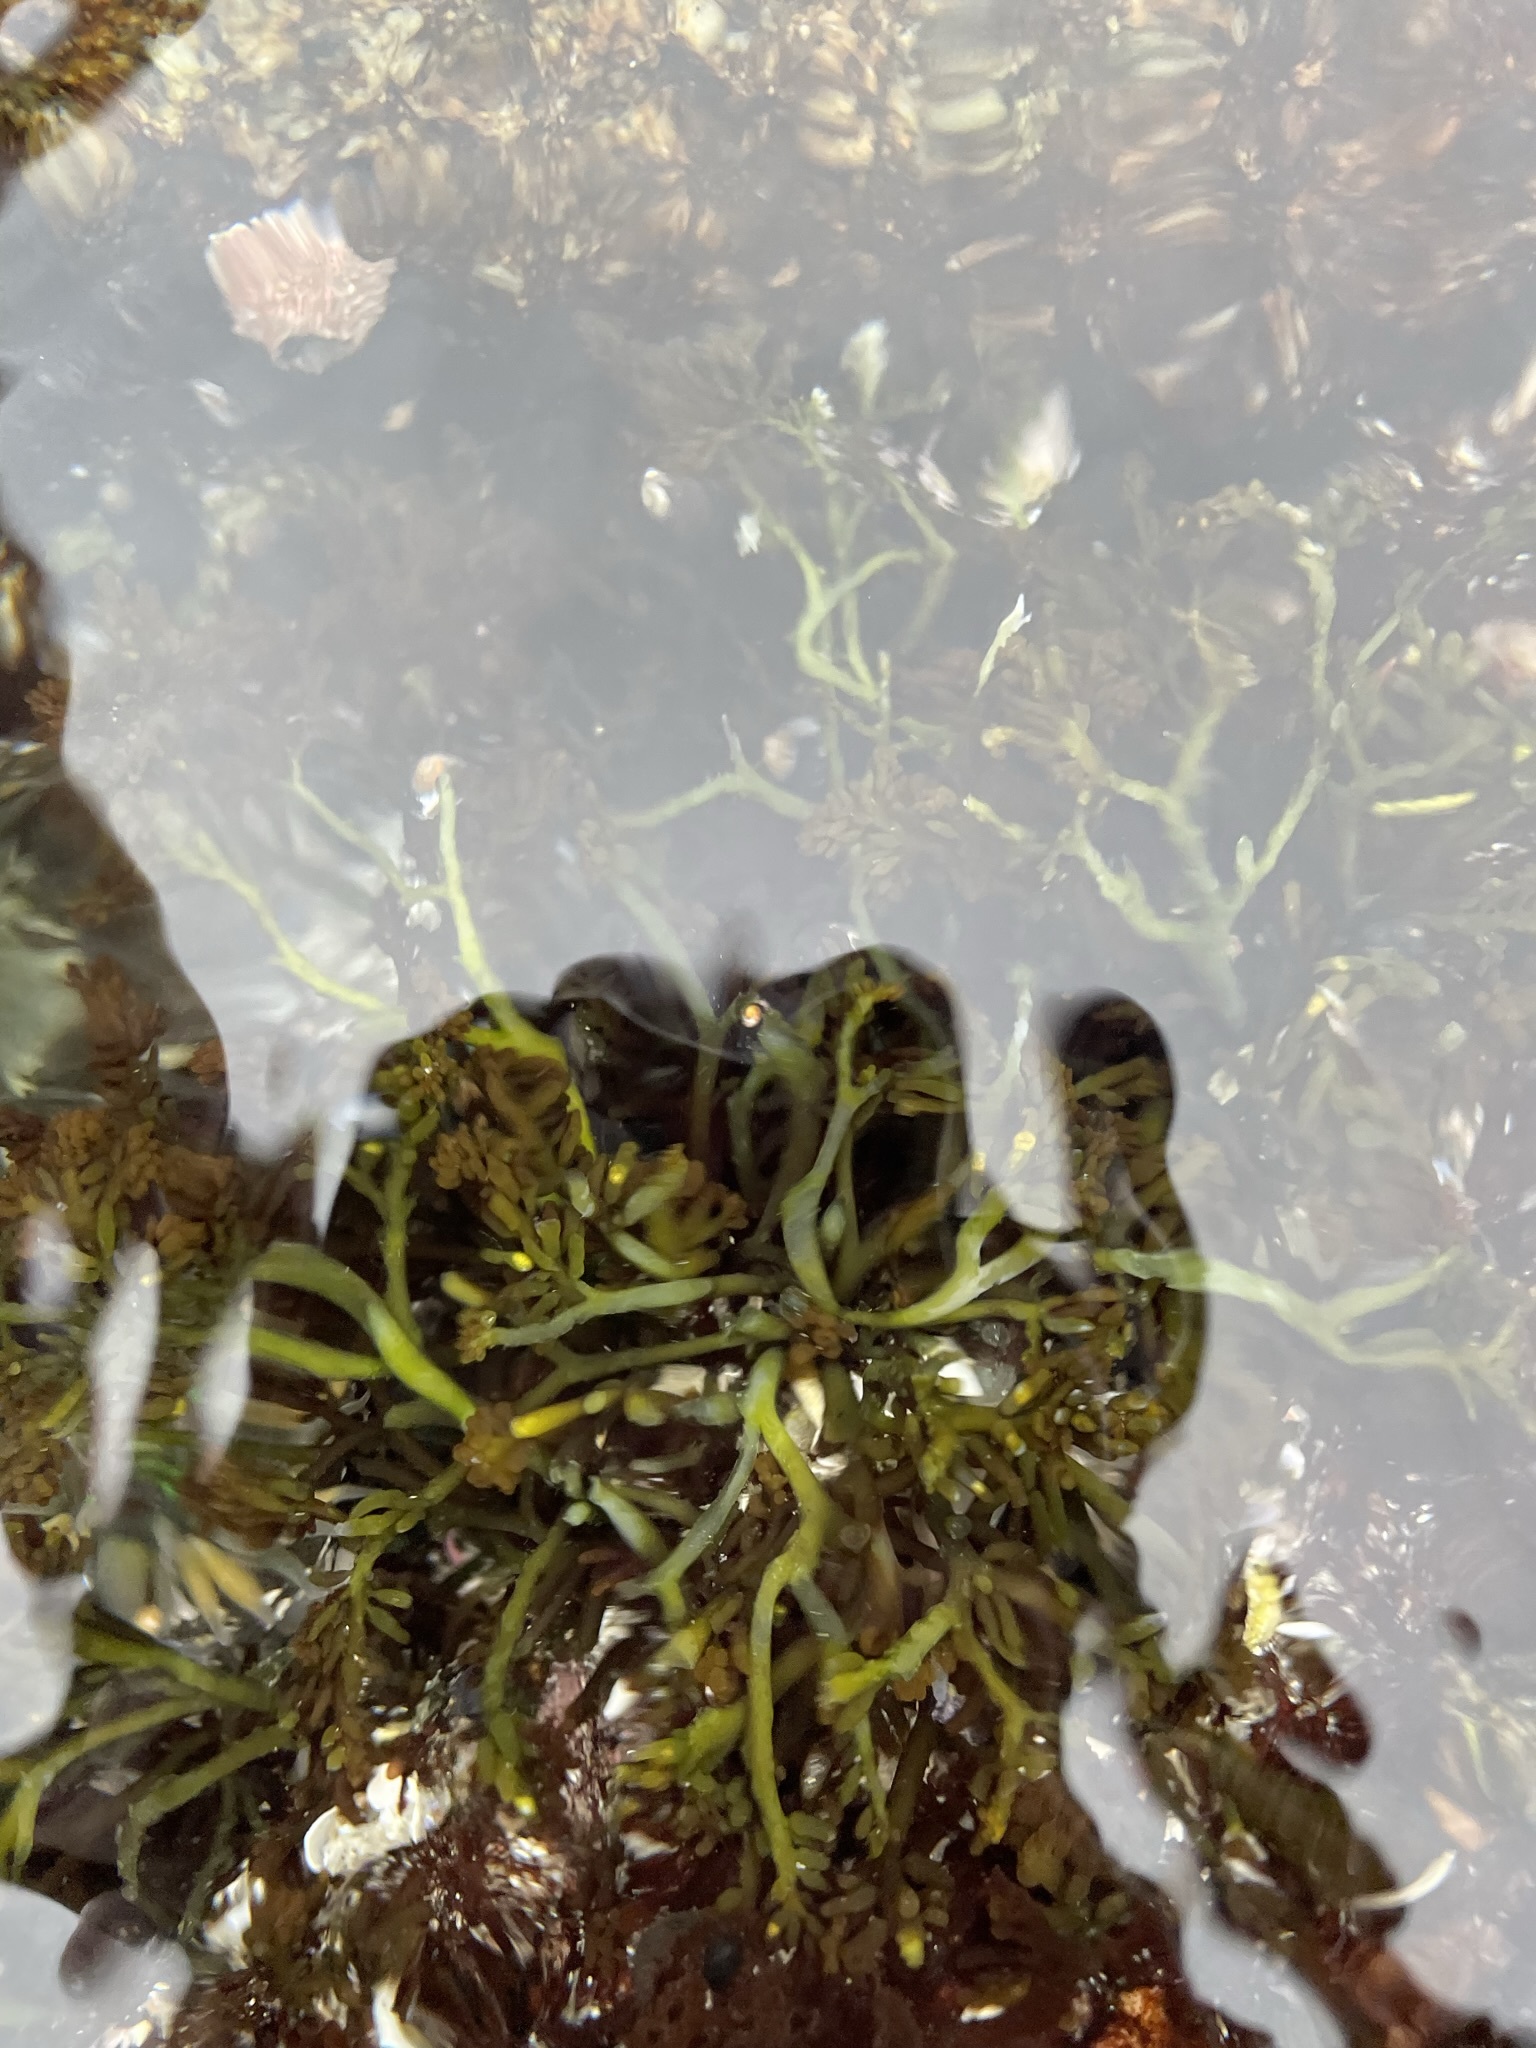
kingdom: Plantae
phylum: Rhodophyta
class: Florideophyceae
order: Rhodymeniales
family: Champiaceae
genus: Neogastroclonium
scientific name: Neogastroclonium subarticulatum
